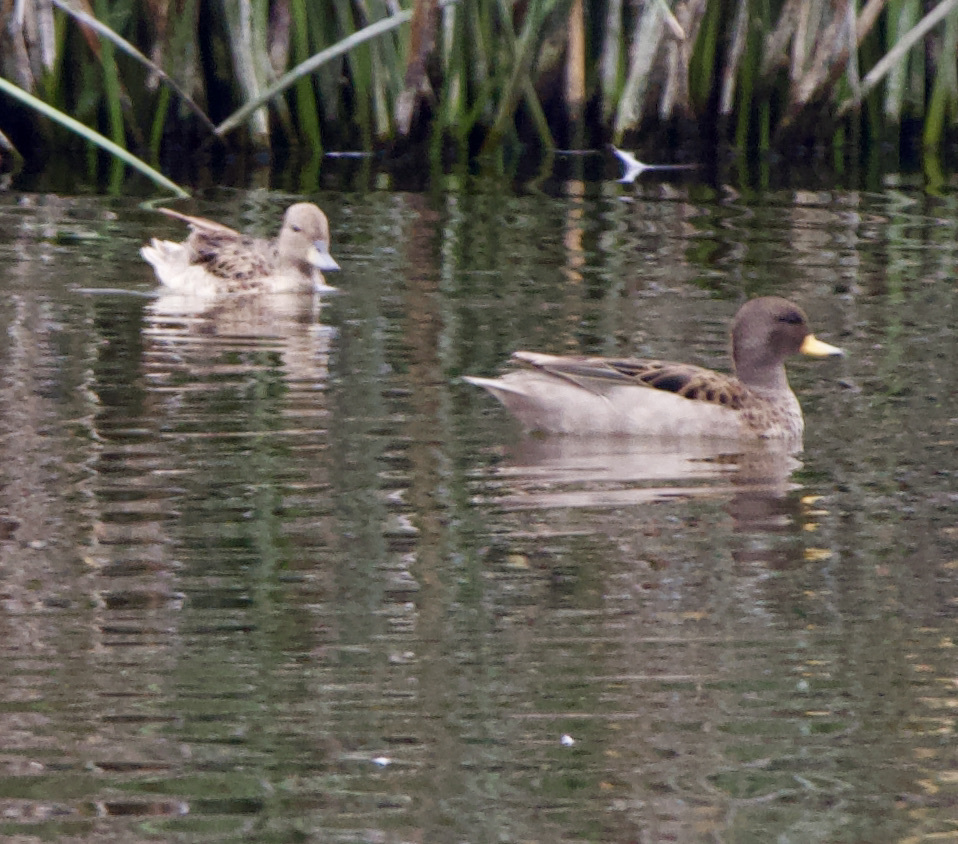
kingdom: Animalia
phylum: Chordata
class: Aves
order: Anseriformes
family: Anatidae
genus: Anas
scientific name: Anas flavirostris
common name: Yellow-billed teal
